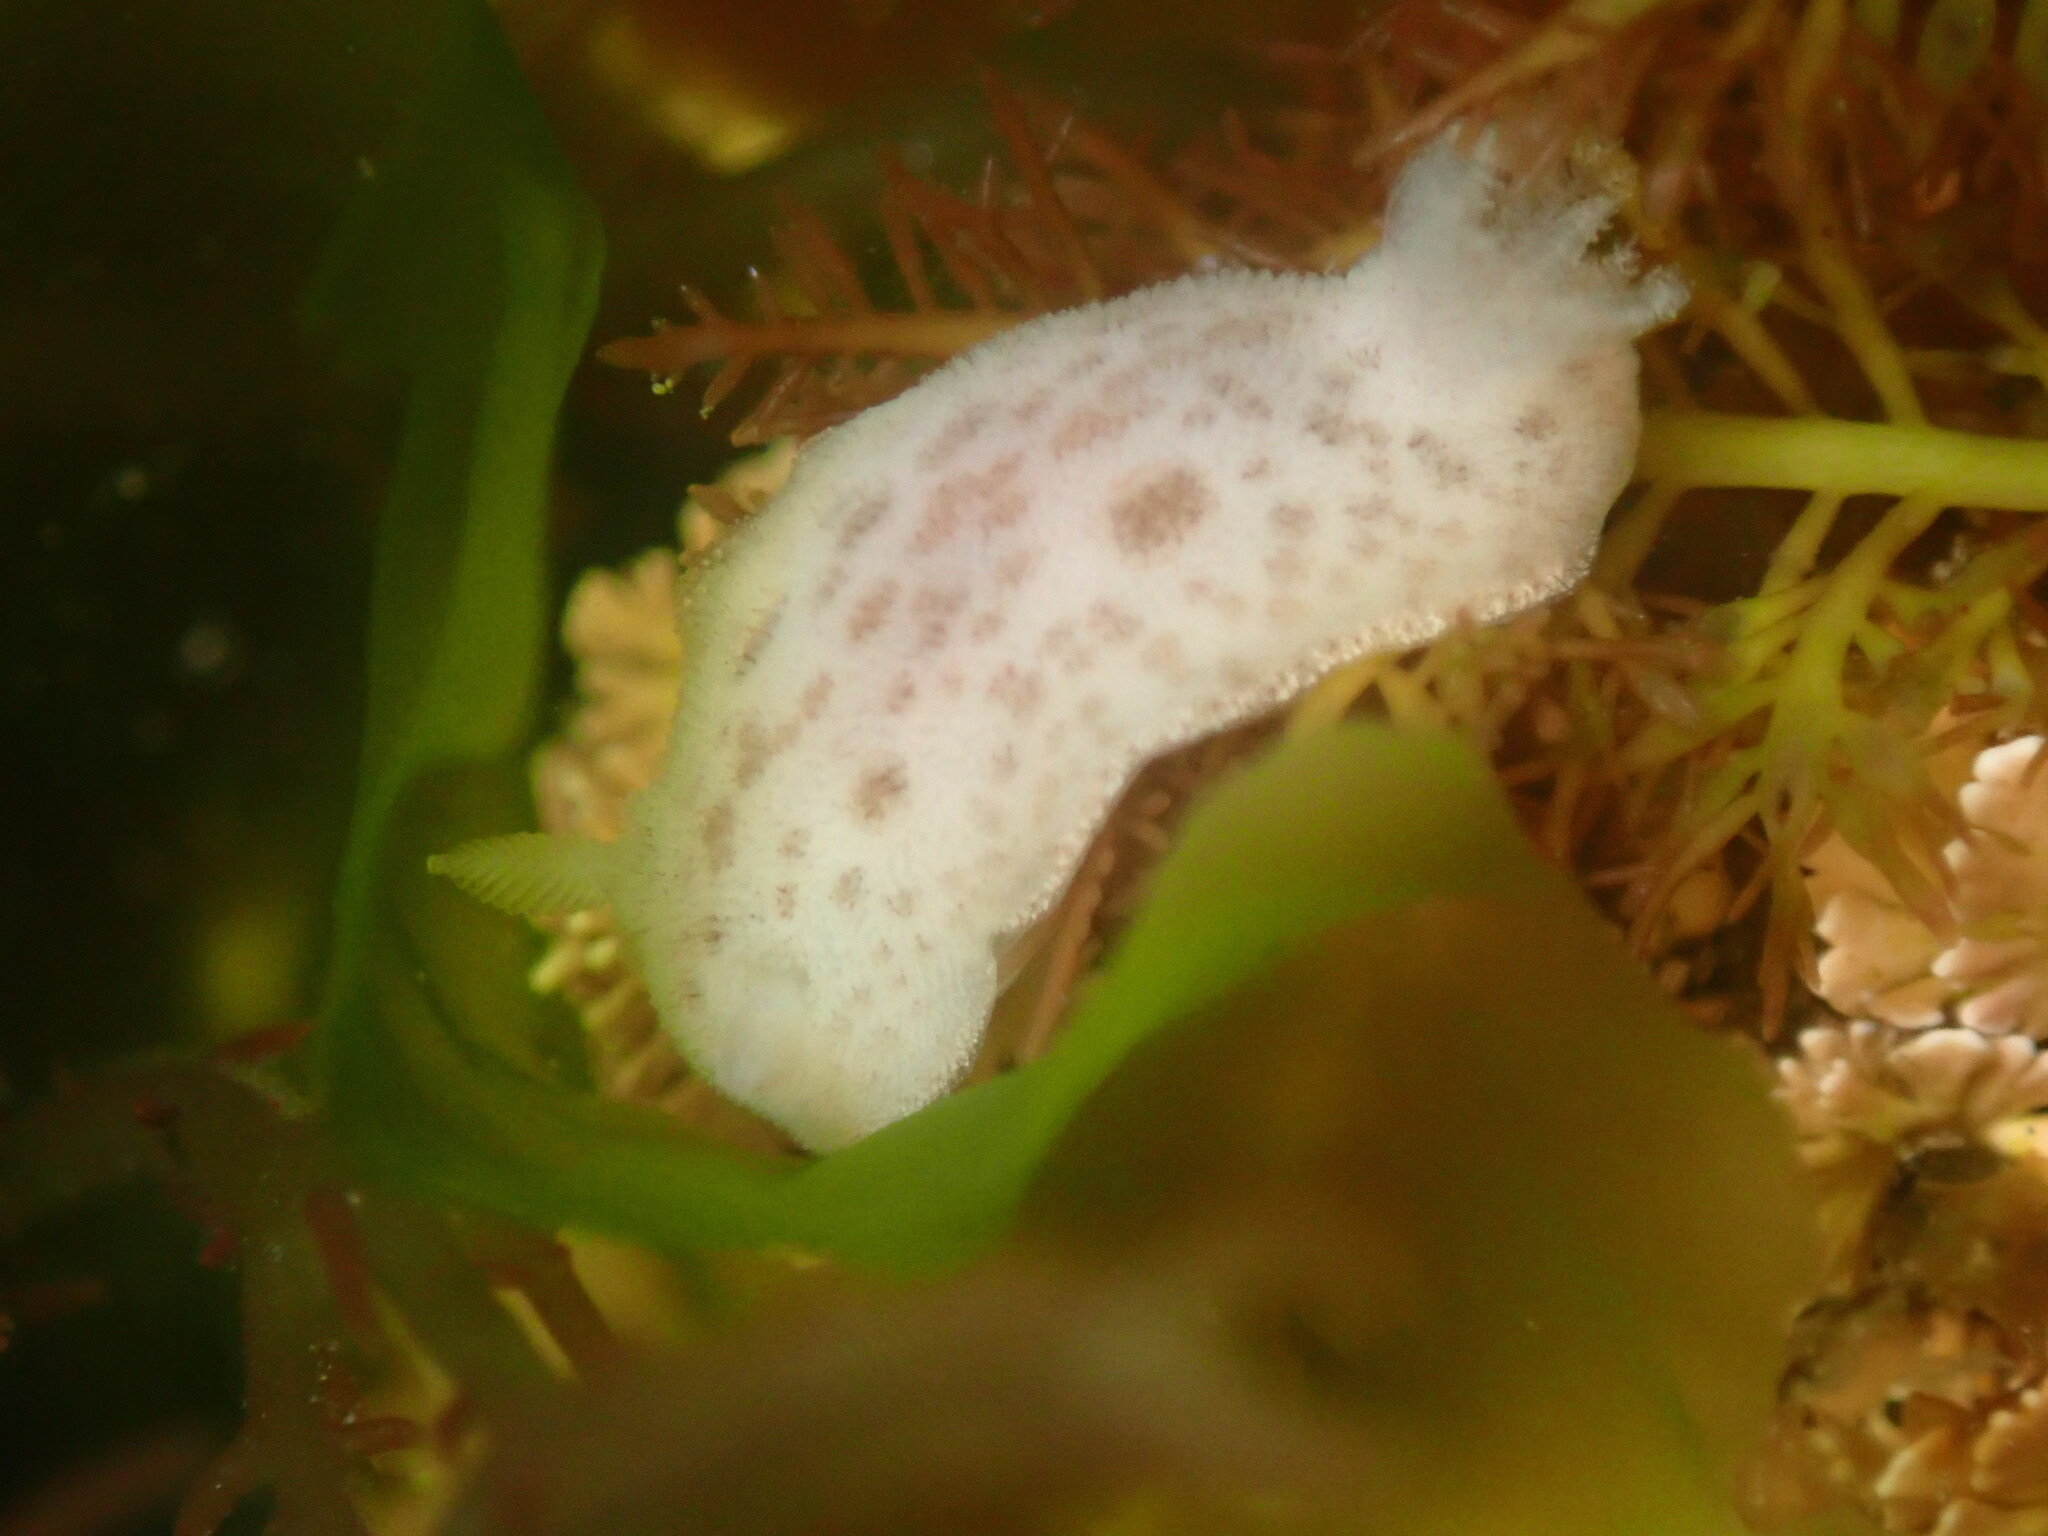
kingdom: Animalia
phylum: Mollusca
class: Gastropoda
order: Nudibranchia
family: Discodorididae
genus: Diaulula
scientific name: Diaulula sandiegensis
